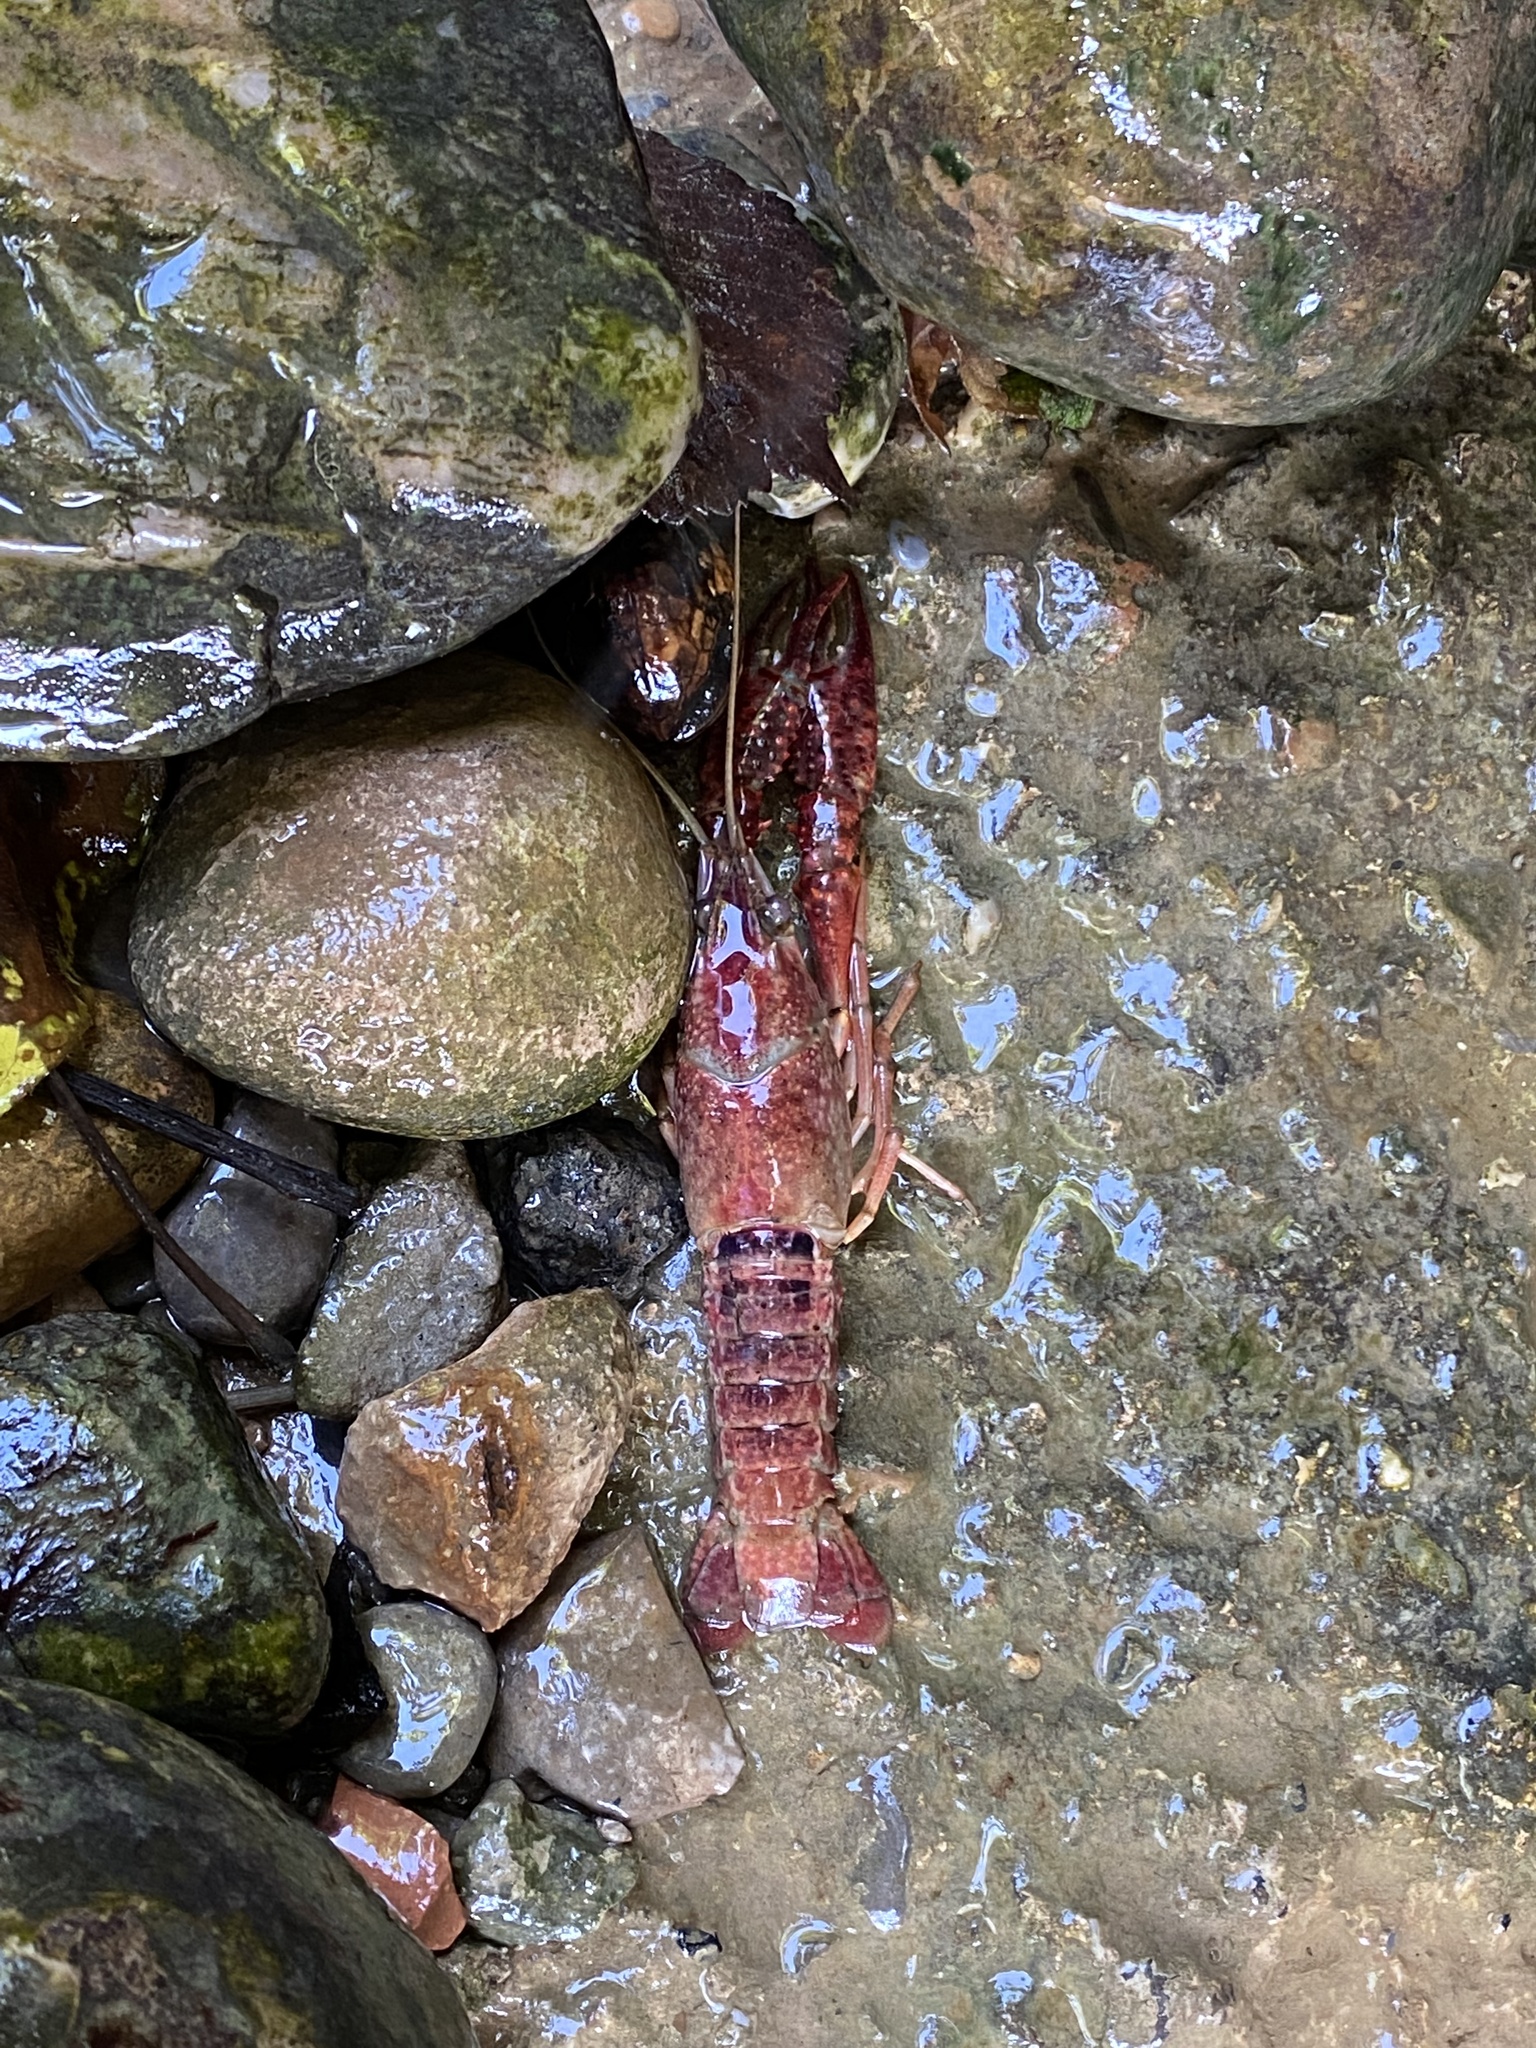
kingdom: Animalia
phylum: Arthropoda
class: Malacostraca
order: Decapoda
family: Cambaridae
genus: Procambarus
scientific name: Procambarus clarkii
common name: Red swamp crayfish
